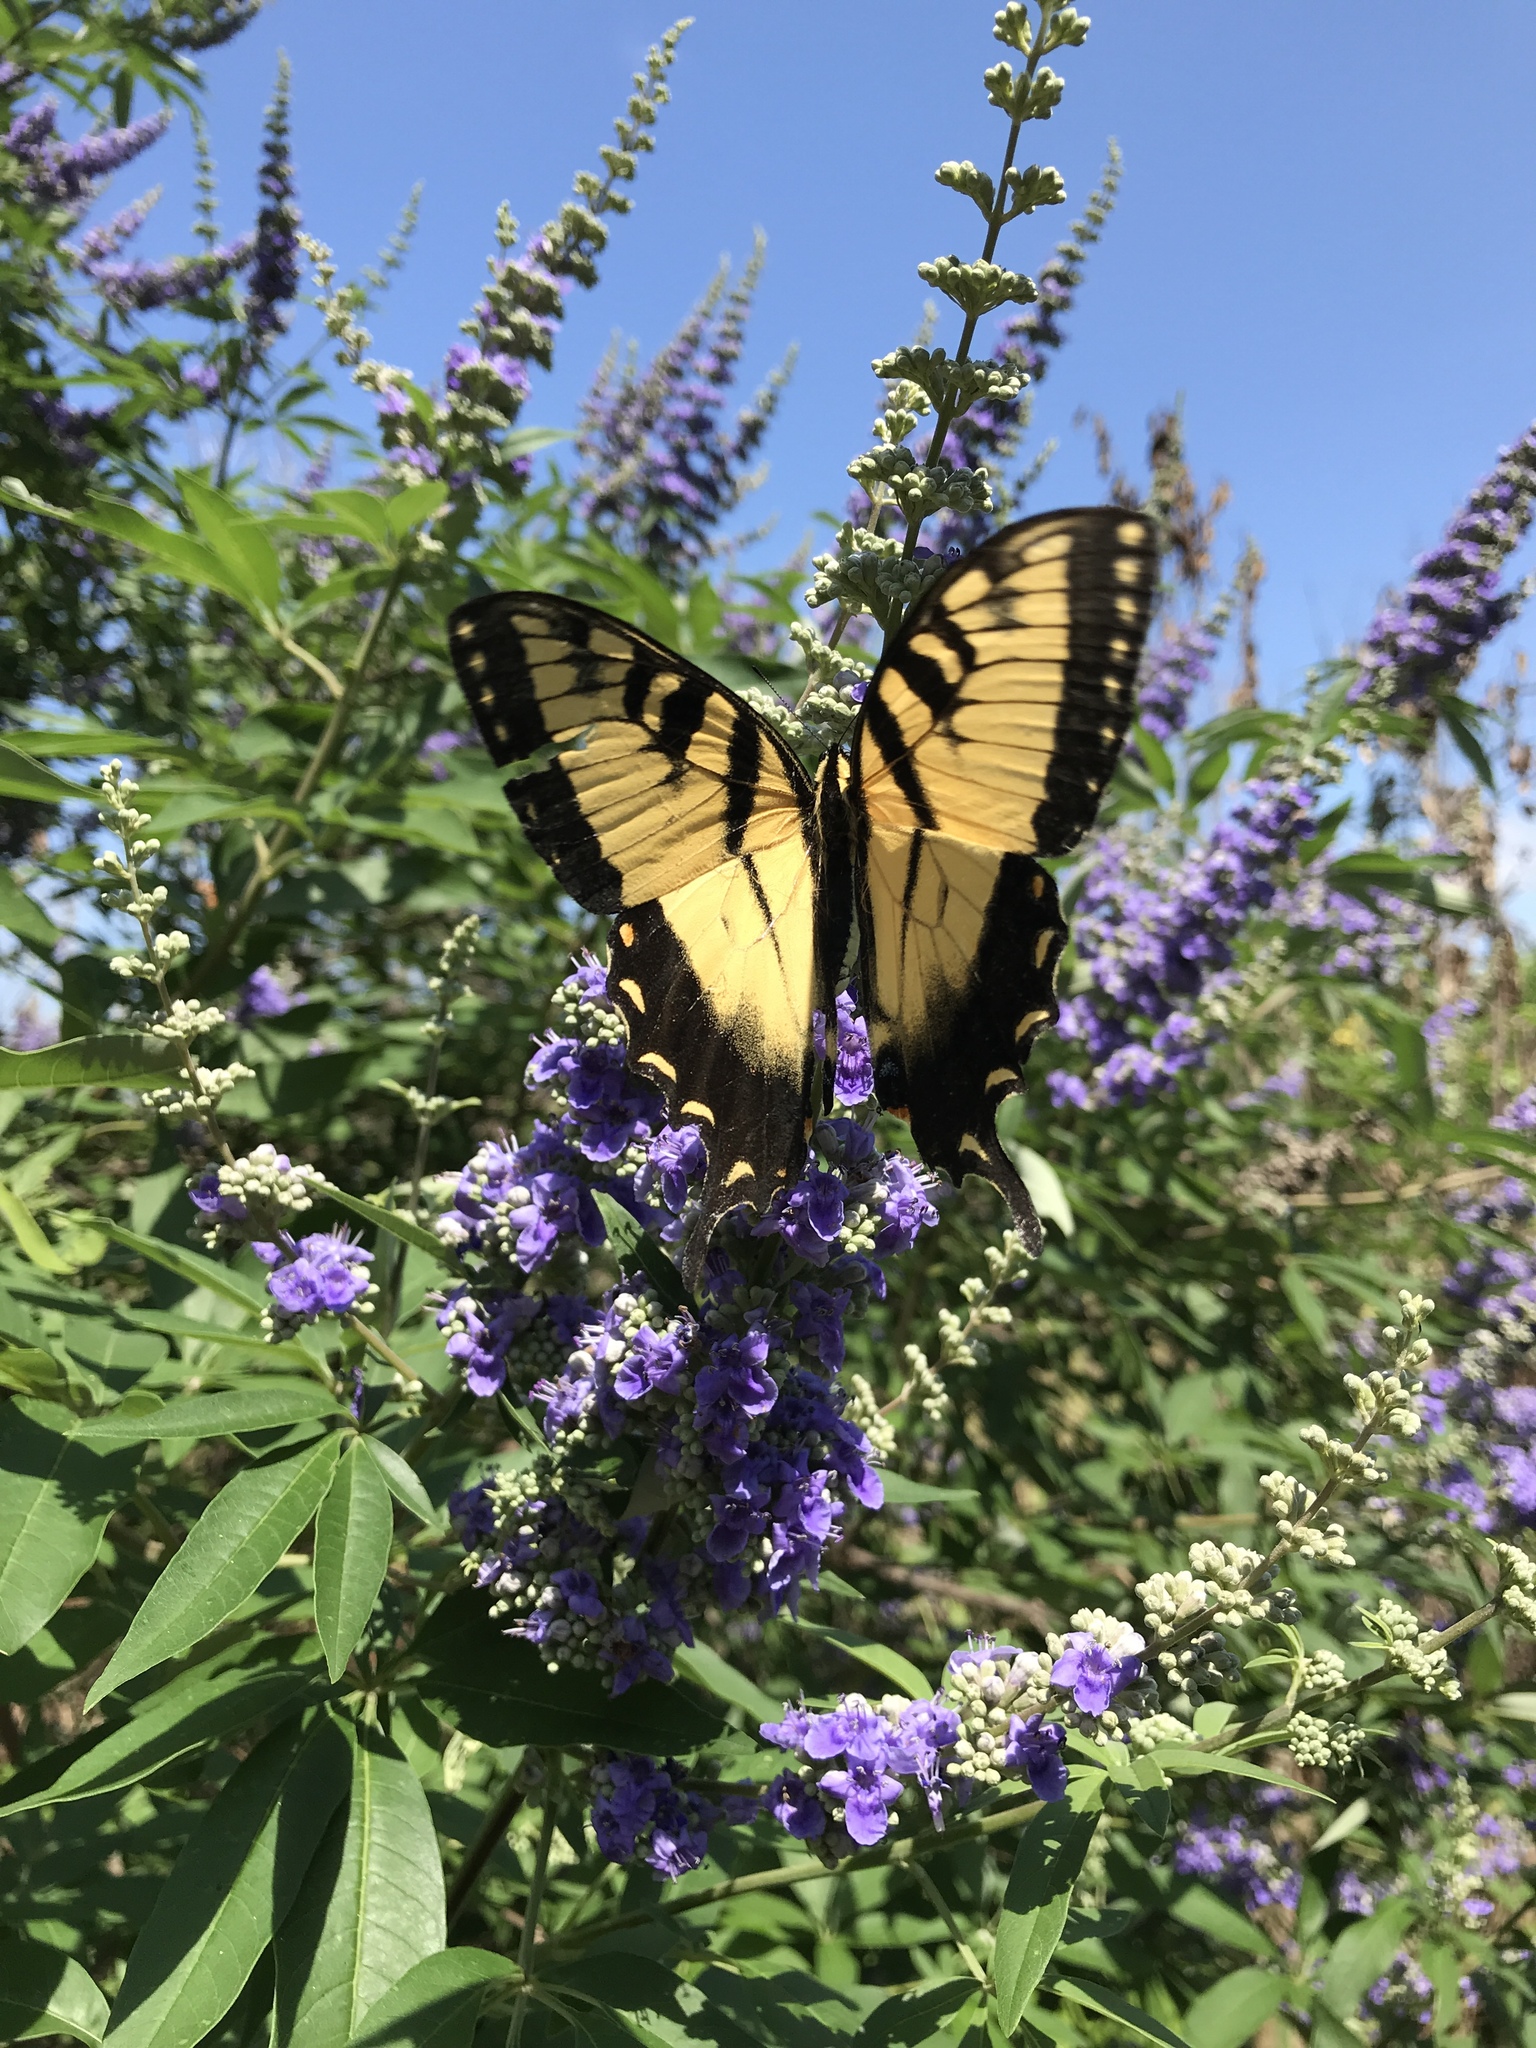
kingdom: Animalia
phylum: Arthropoda
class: Insecta
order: Lepidoptera
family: Papilionidae
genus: Papilio
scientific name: Papilio glaucus
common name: Tiger swallowtail
